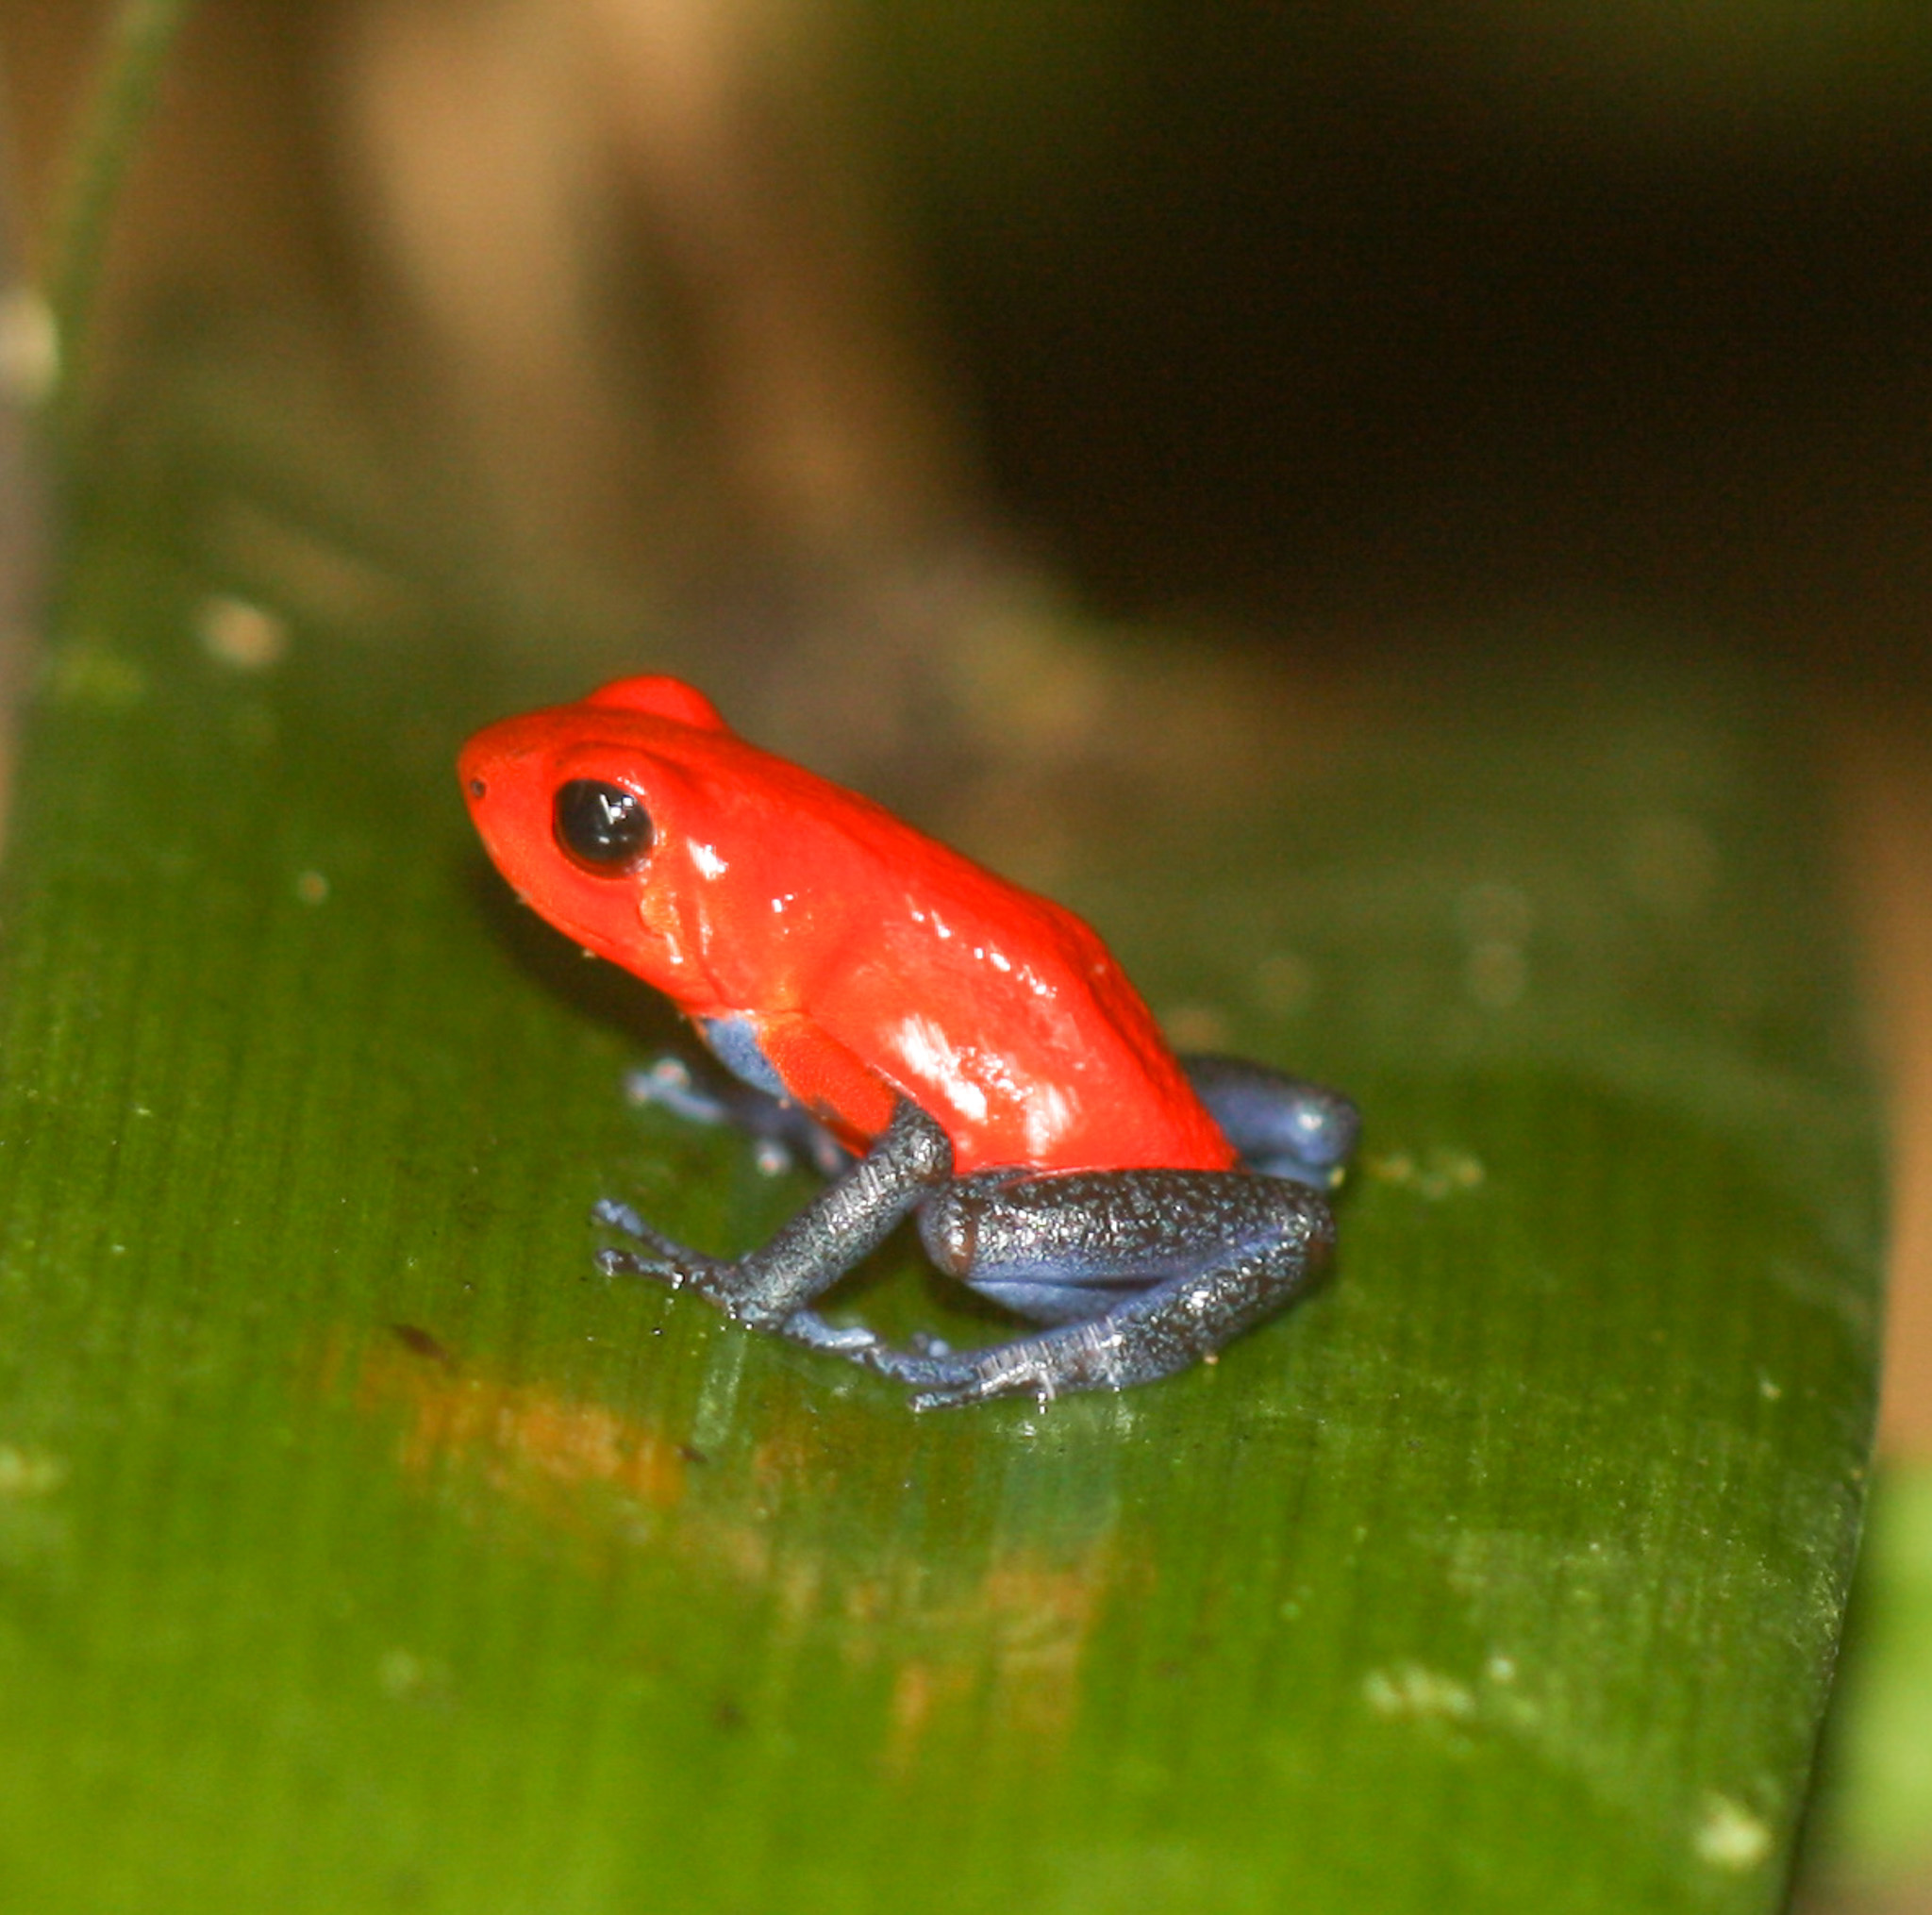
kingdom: Animalia
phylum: Chordata
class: Amphibia
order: Anura
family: Dendrobatidae
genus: Oophaga
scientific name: Oophaga pumilio
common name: Flaming poison frog
